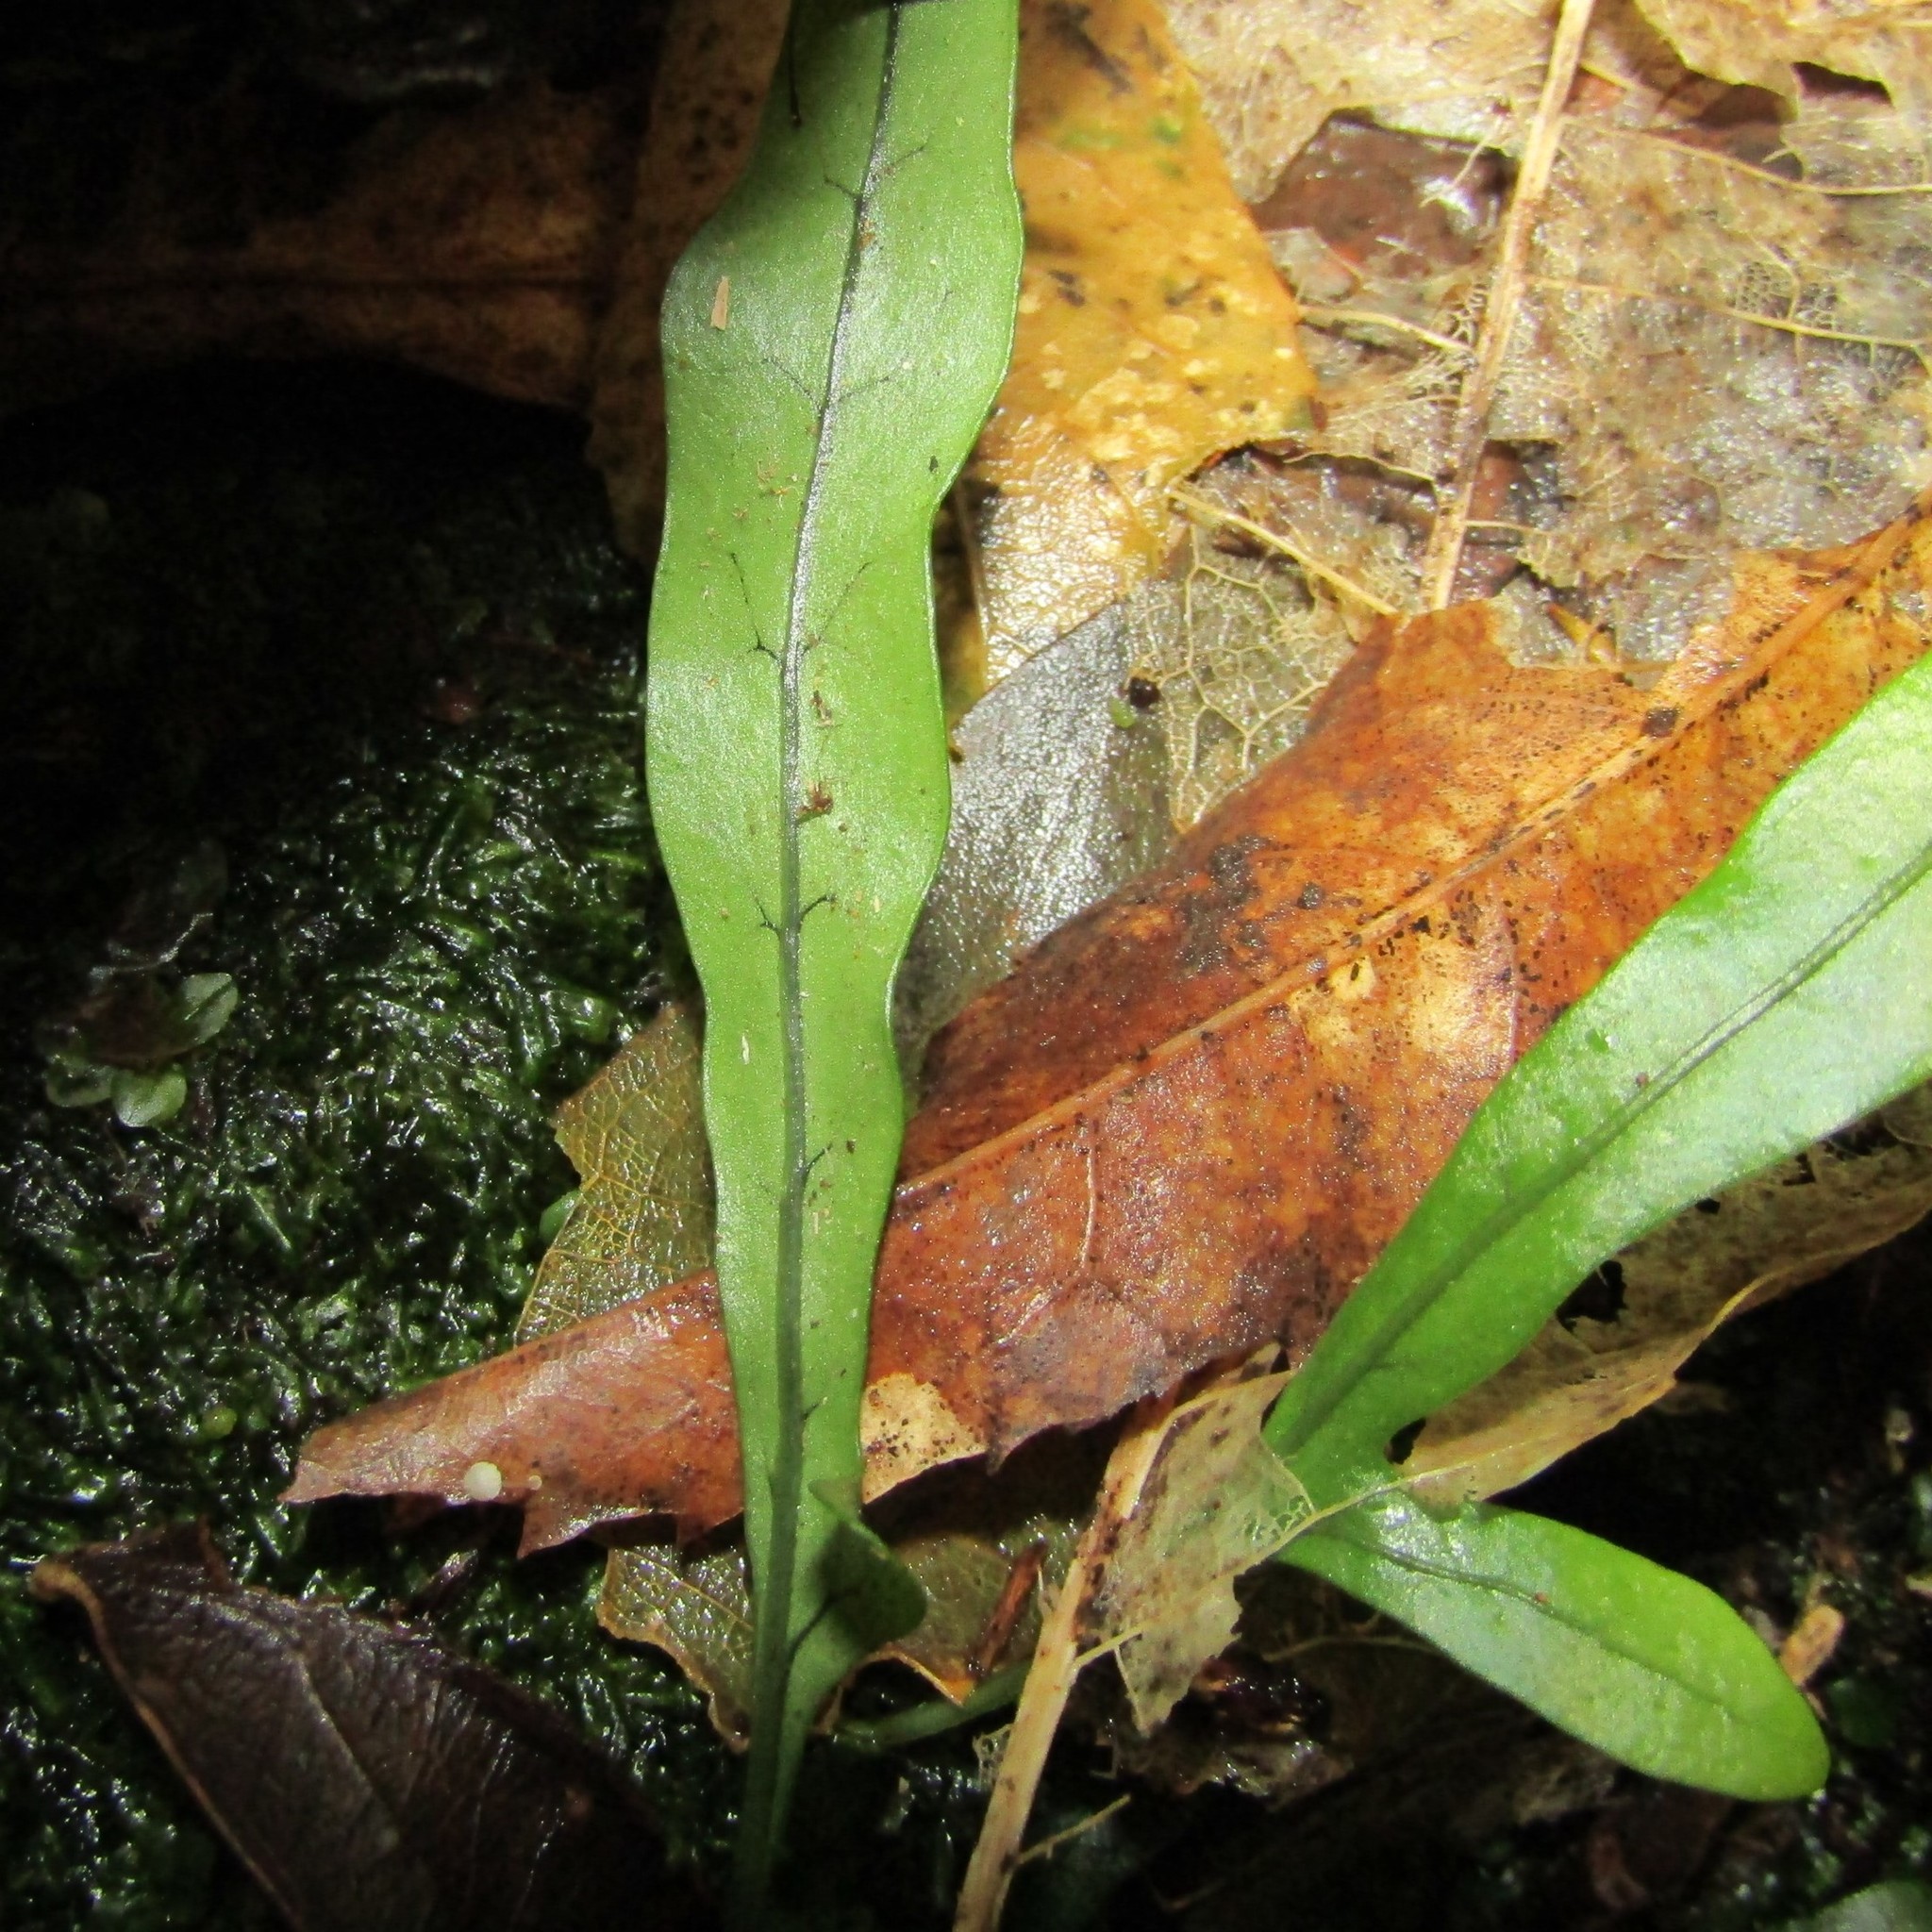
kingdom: Plantae
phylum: Tracheophyta
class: Polypodiopsida
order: Polypodiales
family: Polypodiaceae
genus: Lecanopteris
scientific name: Lecanopteris scandens
